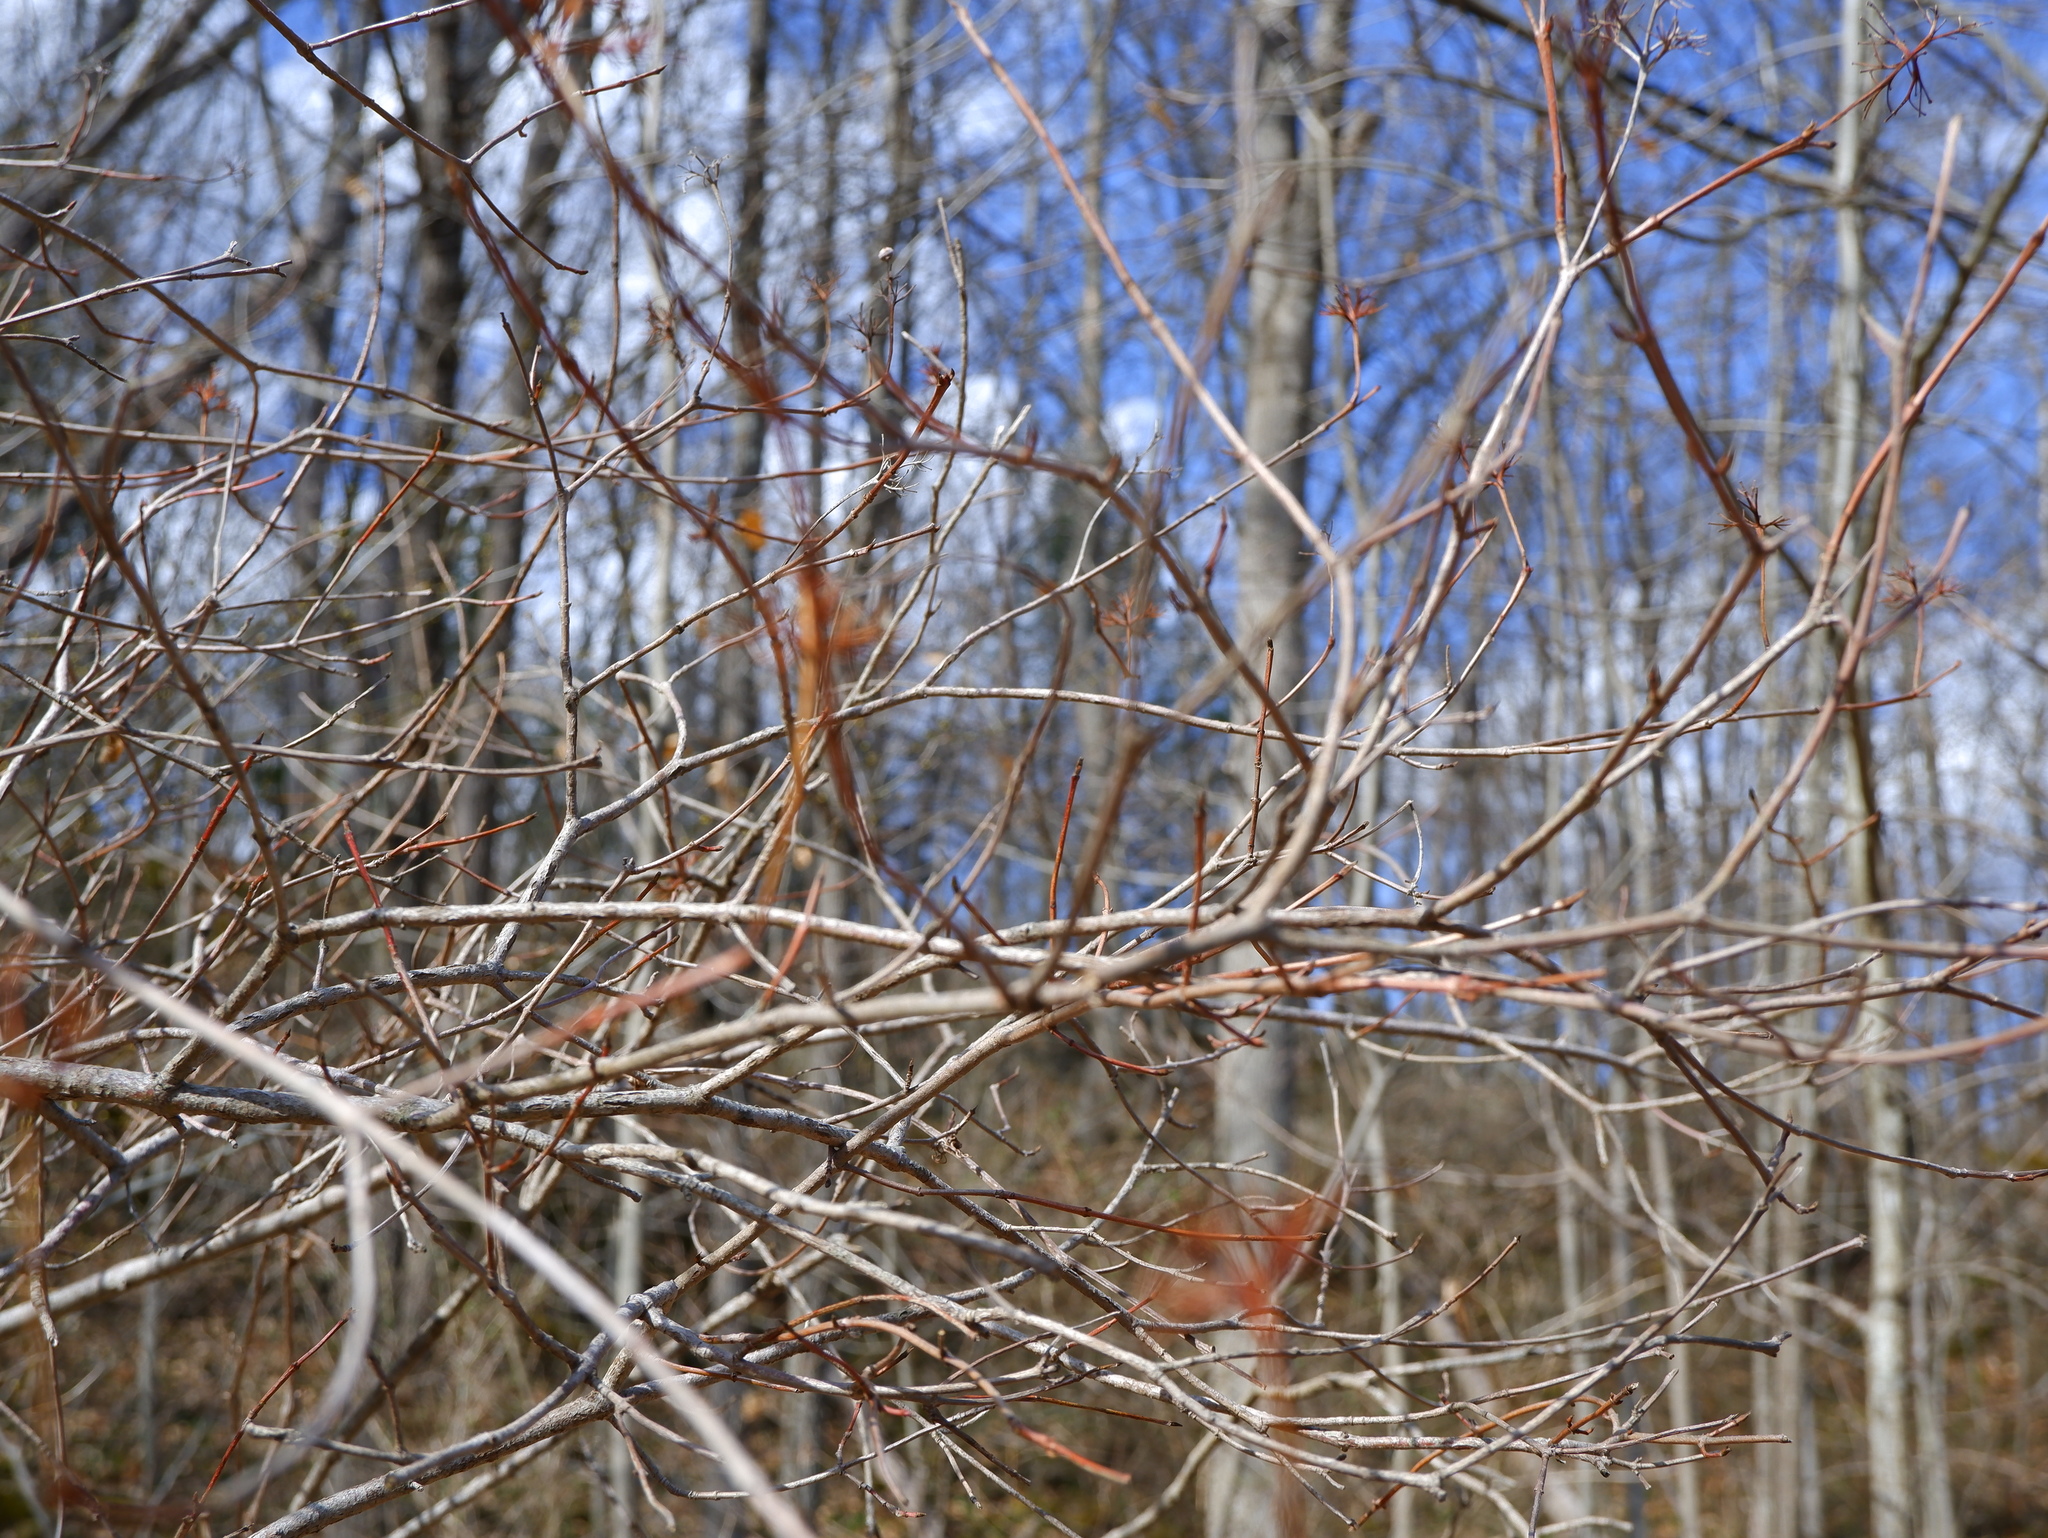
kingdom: Plantae
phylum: Tracheophyta
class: Magnoliopsida
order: Cornales
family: Cornaceae
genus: Cornus
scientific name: Cornus racemosa
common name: Panicled dogwood
